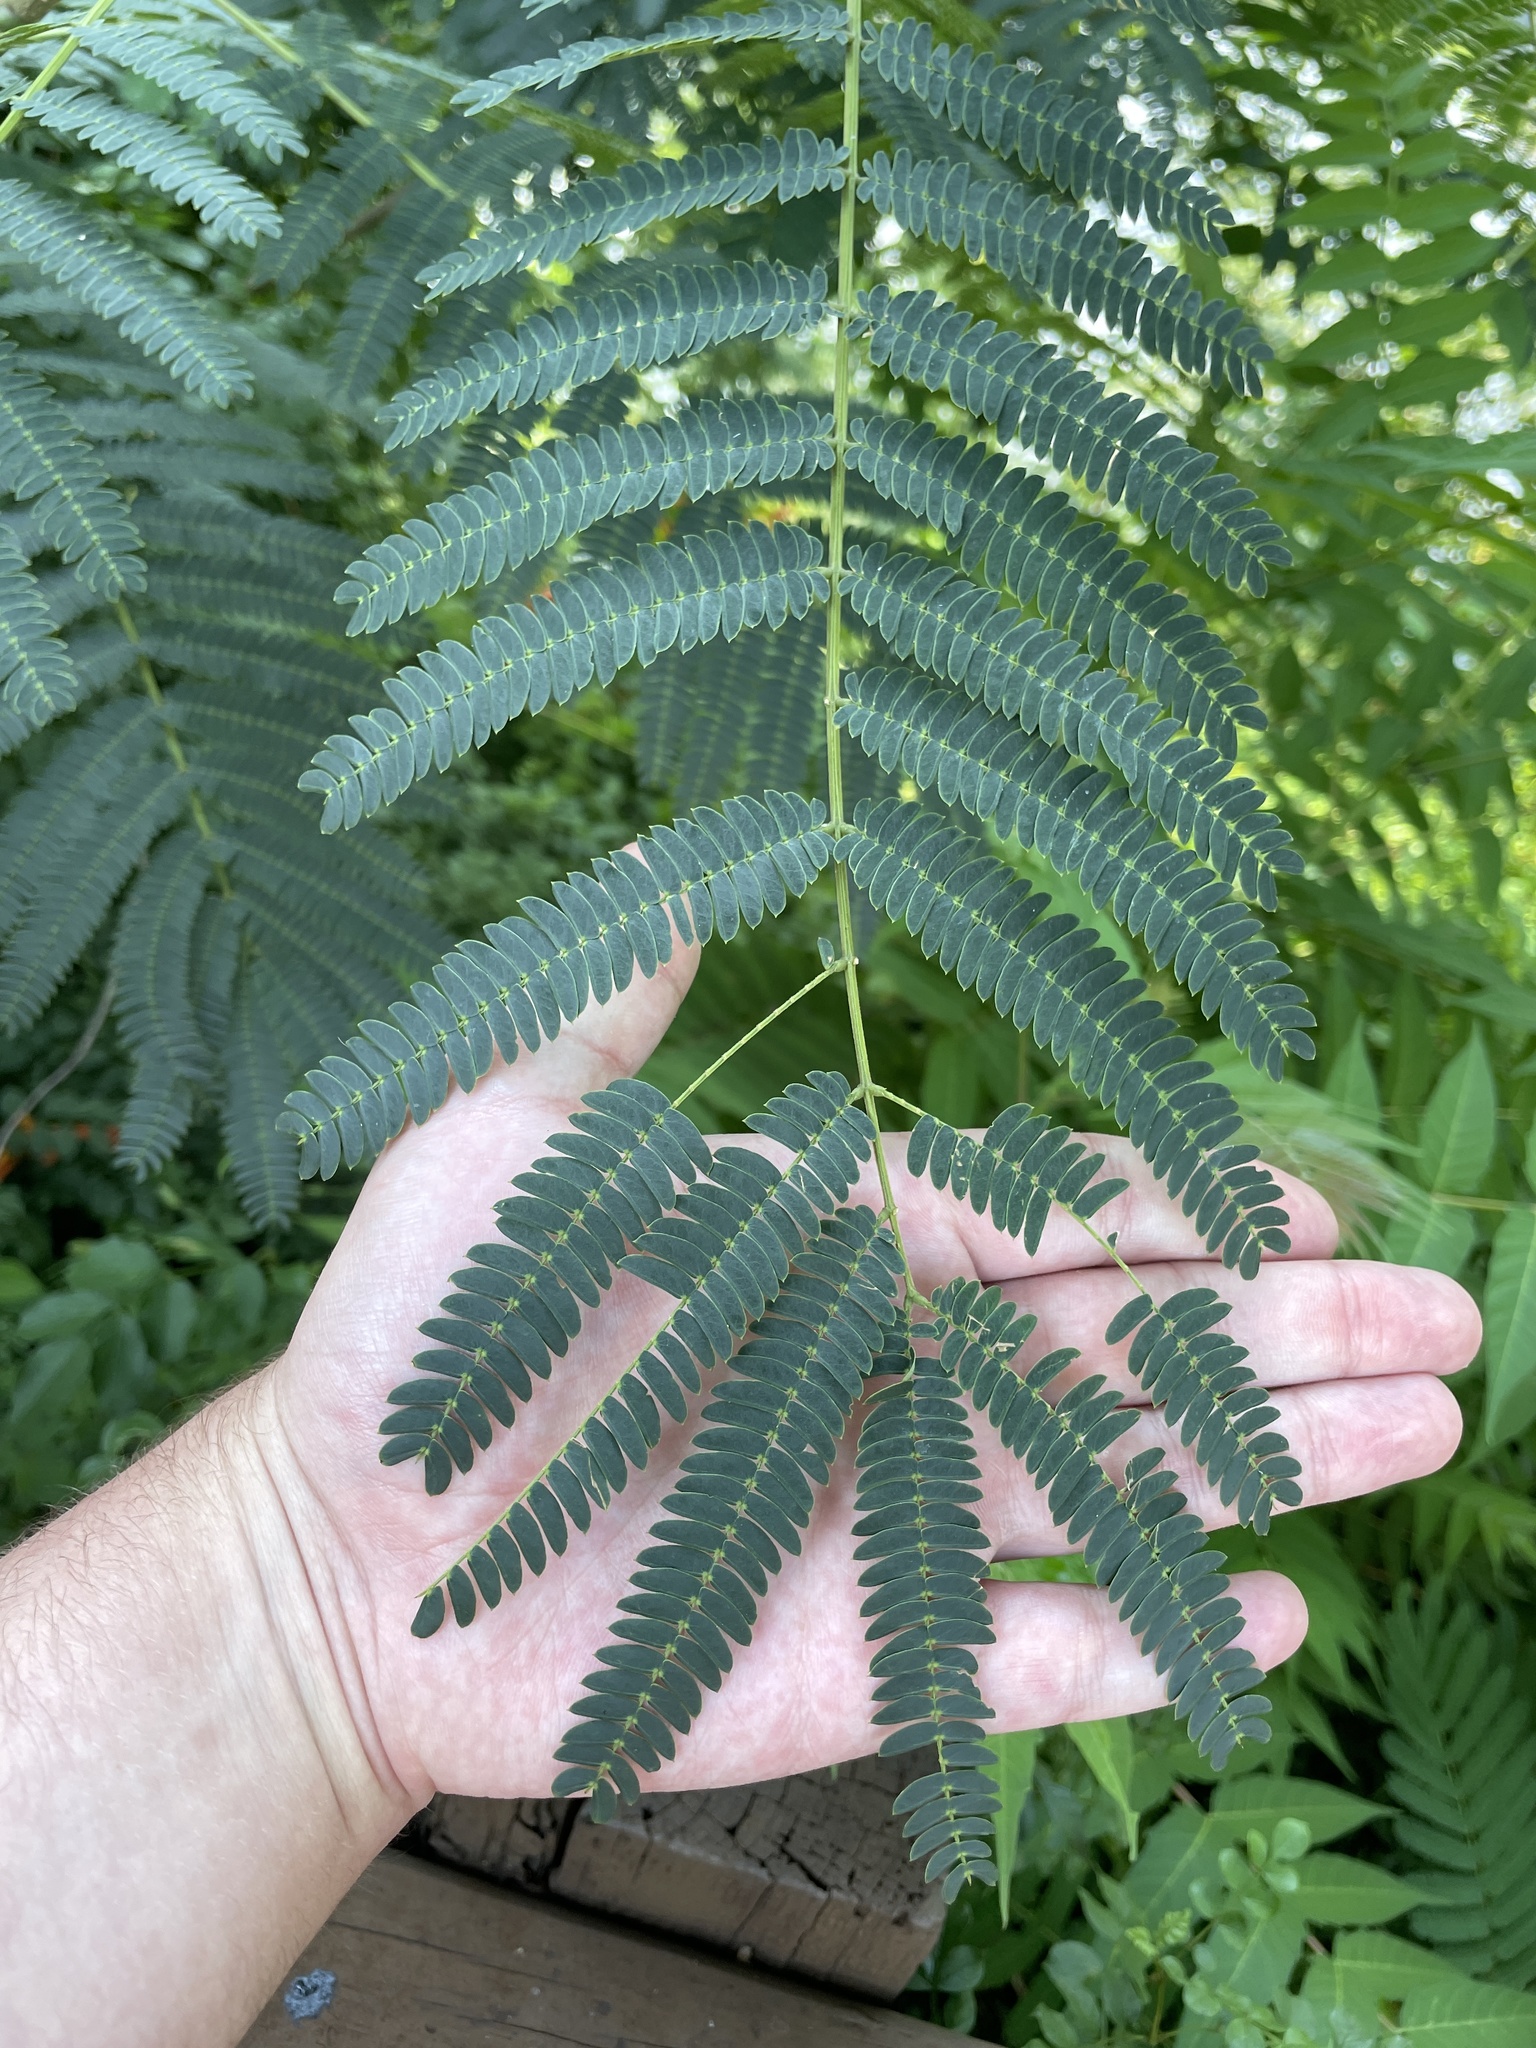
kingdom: Plantae
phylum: Tracheophyta
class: Magnoliopsida
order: Fabales
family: Fabaceae
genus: Albizia
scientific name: Albizia julibrissin
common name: Silktree
